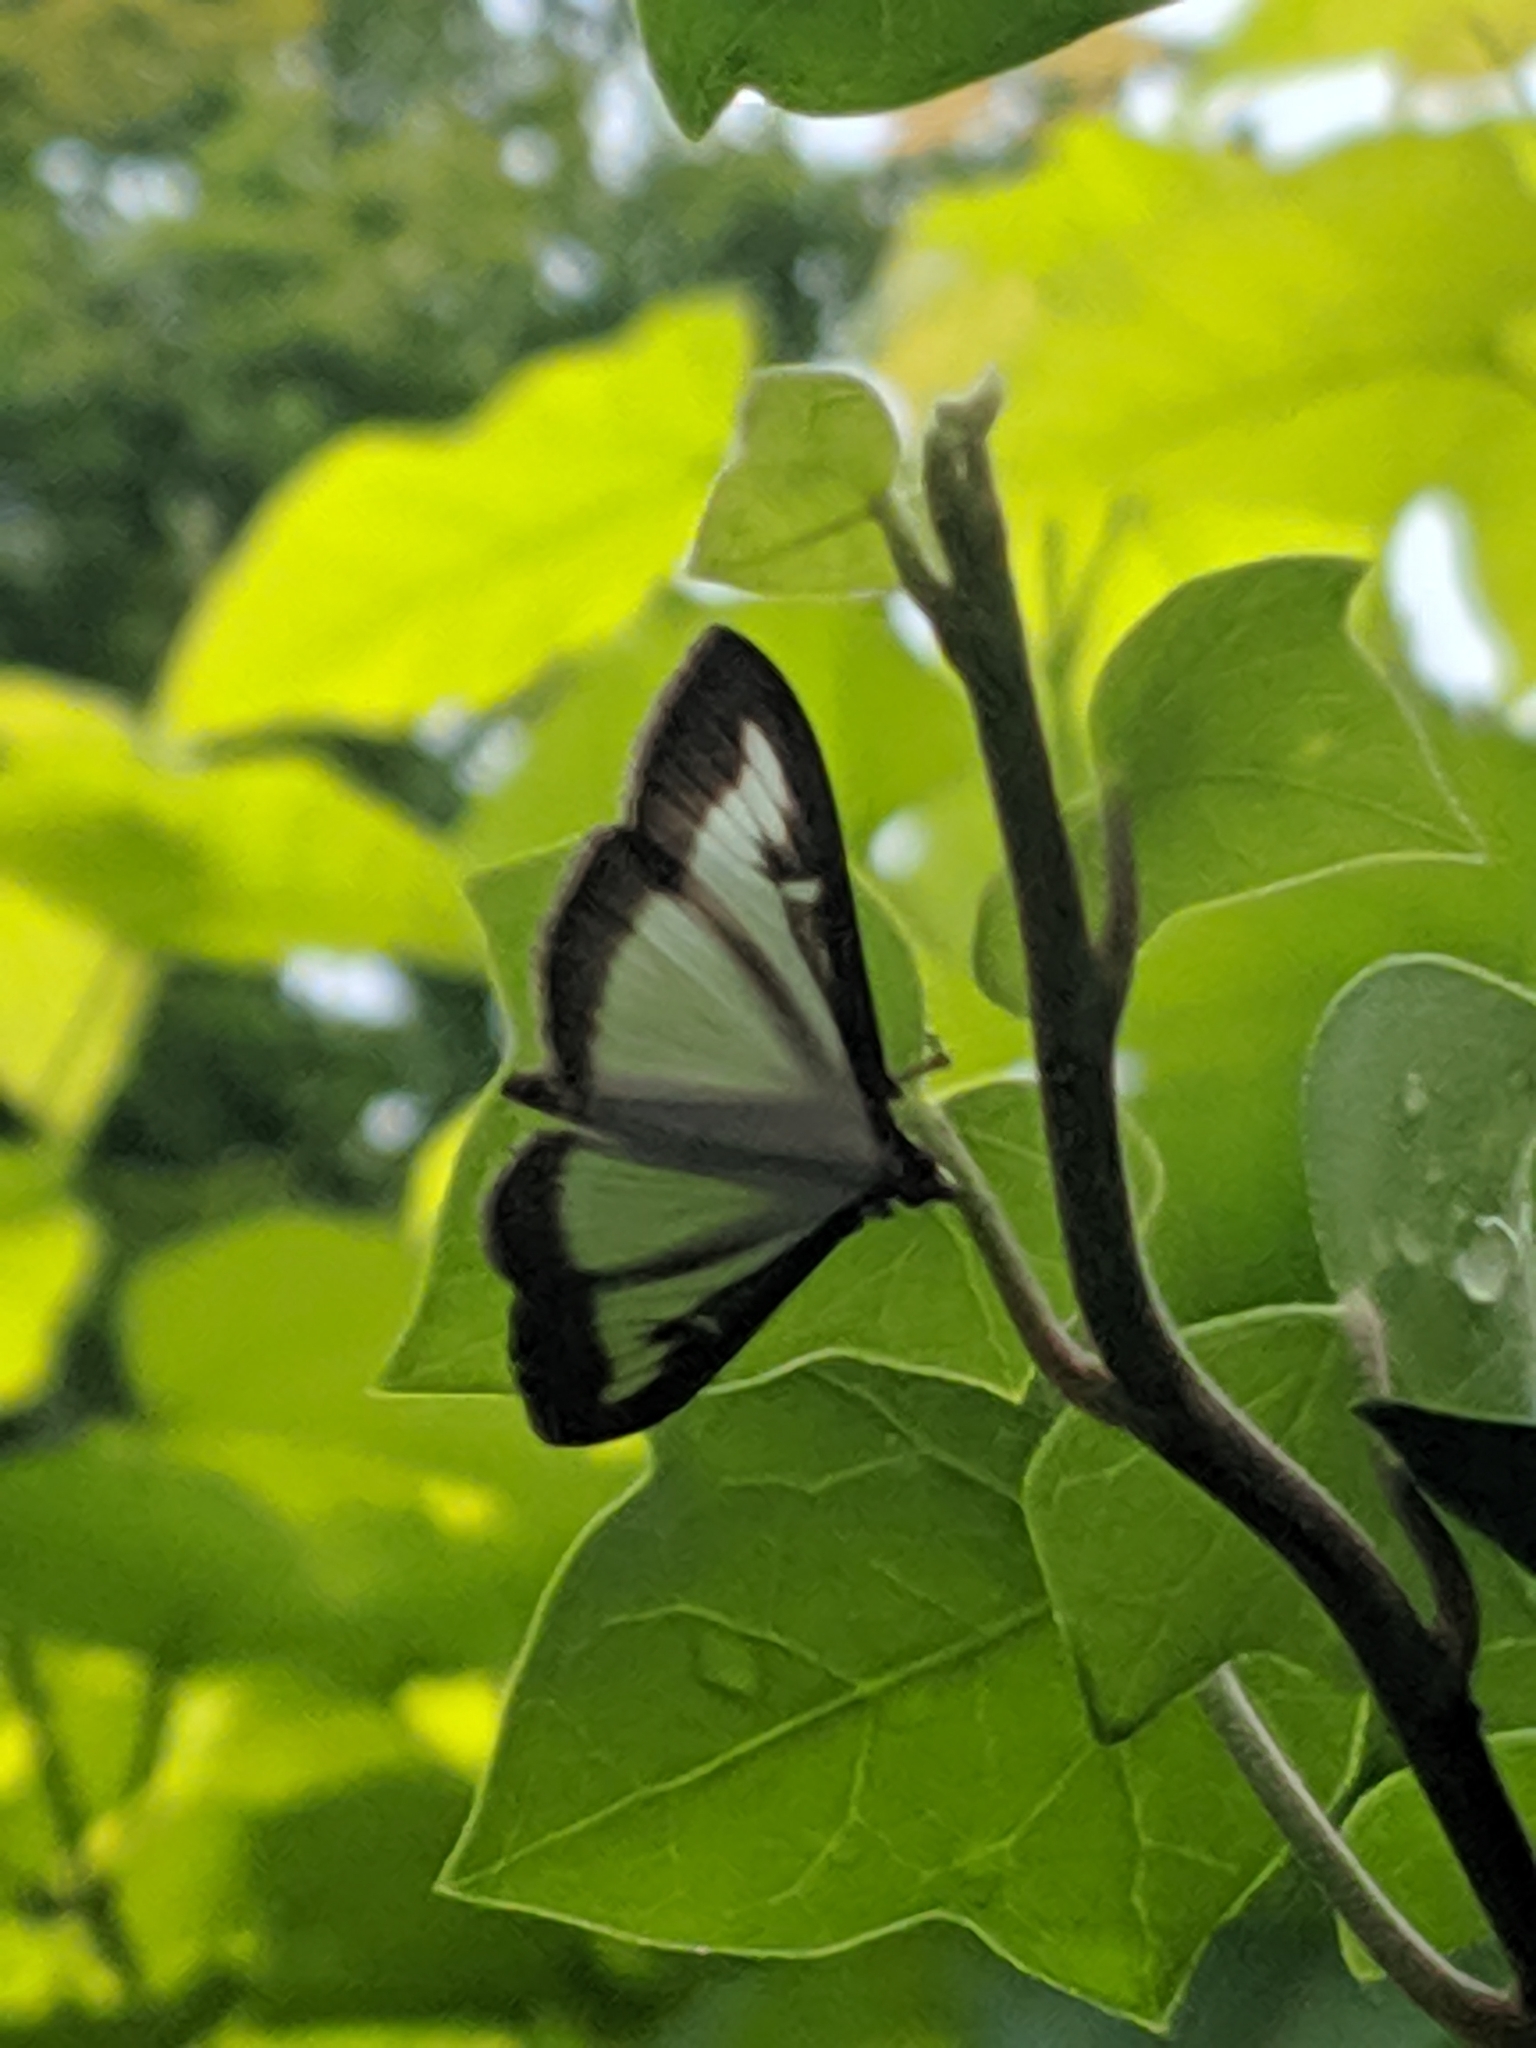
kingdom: Animalia
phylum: Arthropoda
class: Insecta
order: Lepidoptera
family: Crambidae
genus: Cydalima
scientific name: Cydalima perspectalis
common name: Box tree moth
